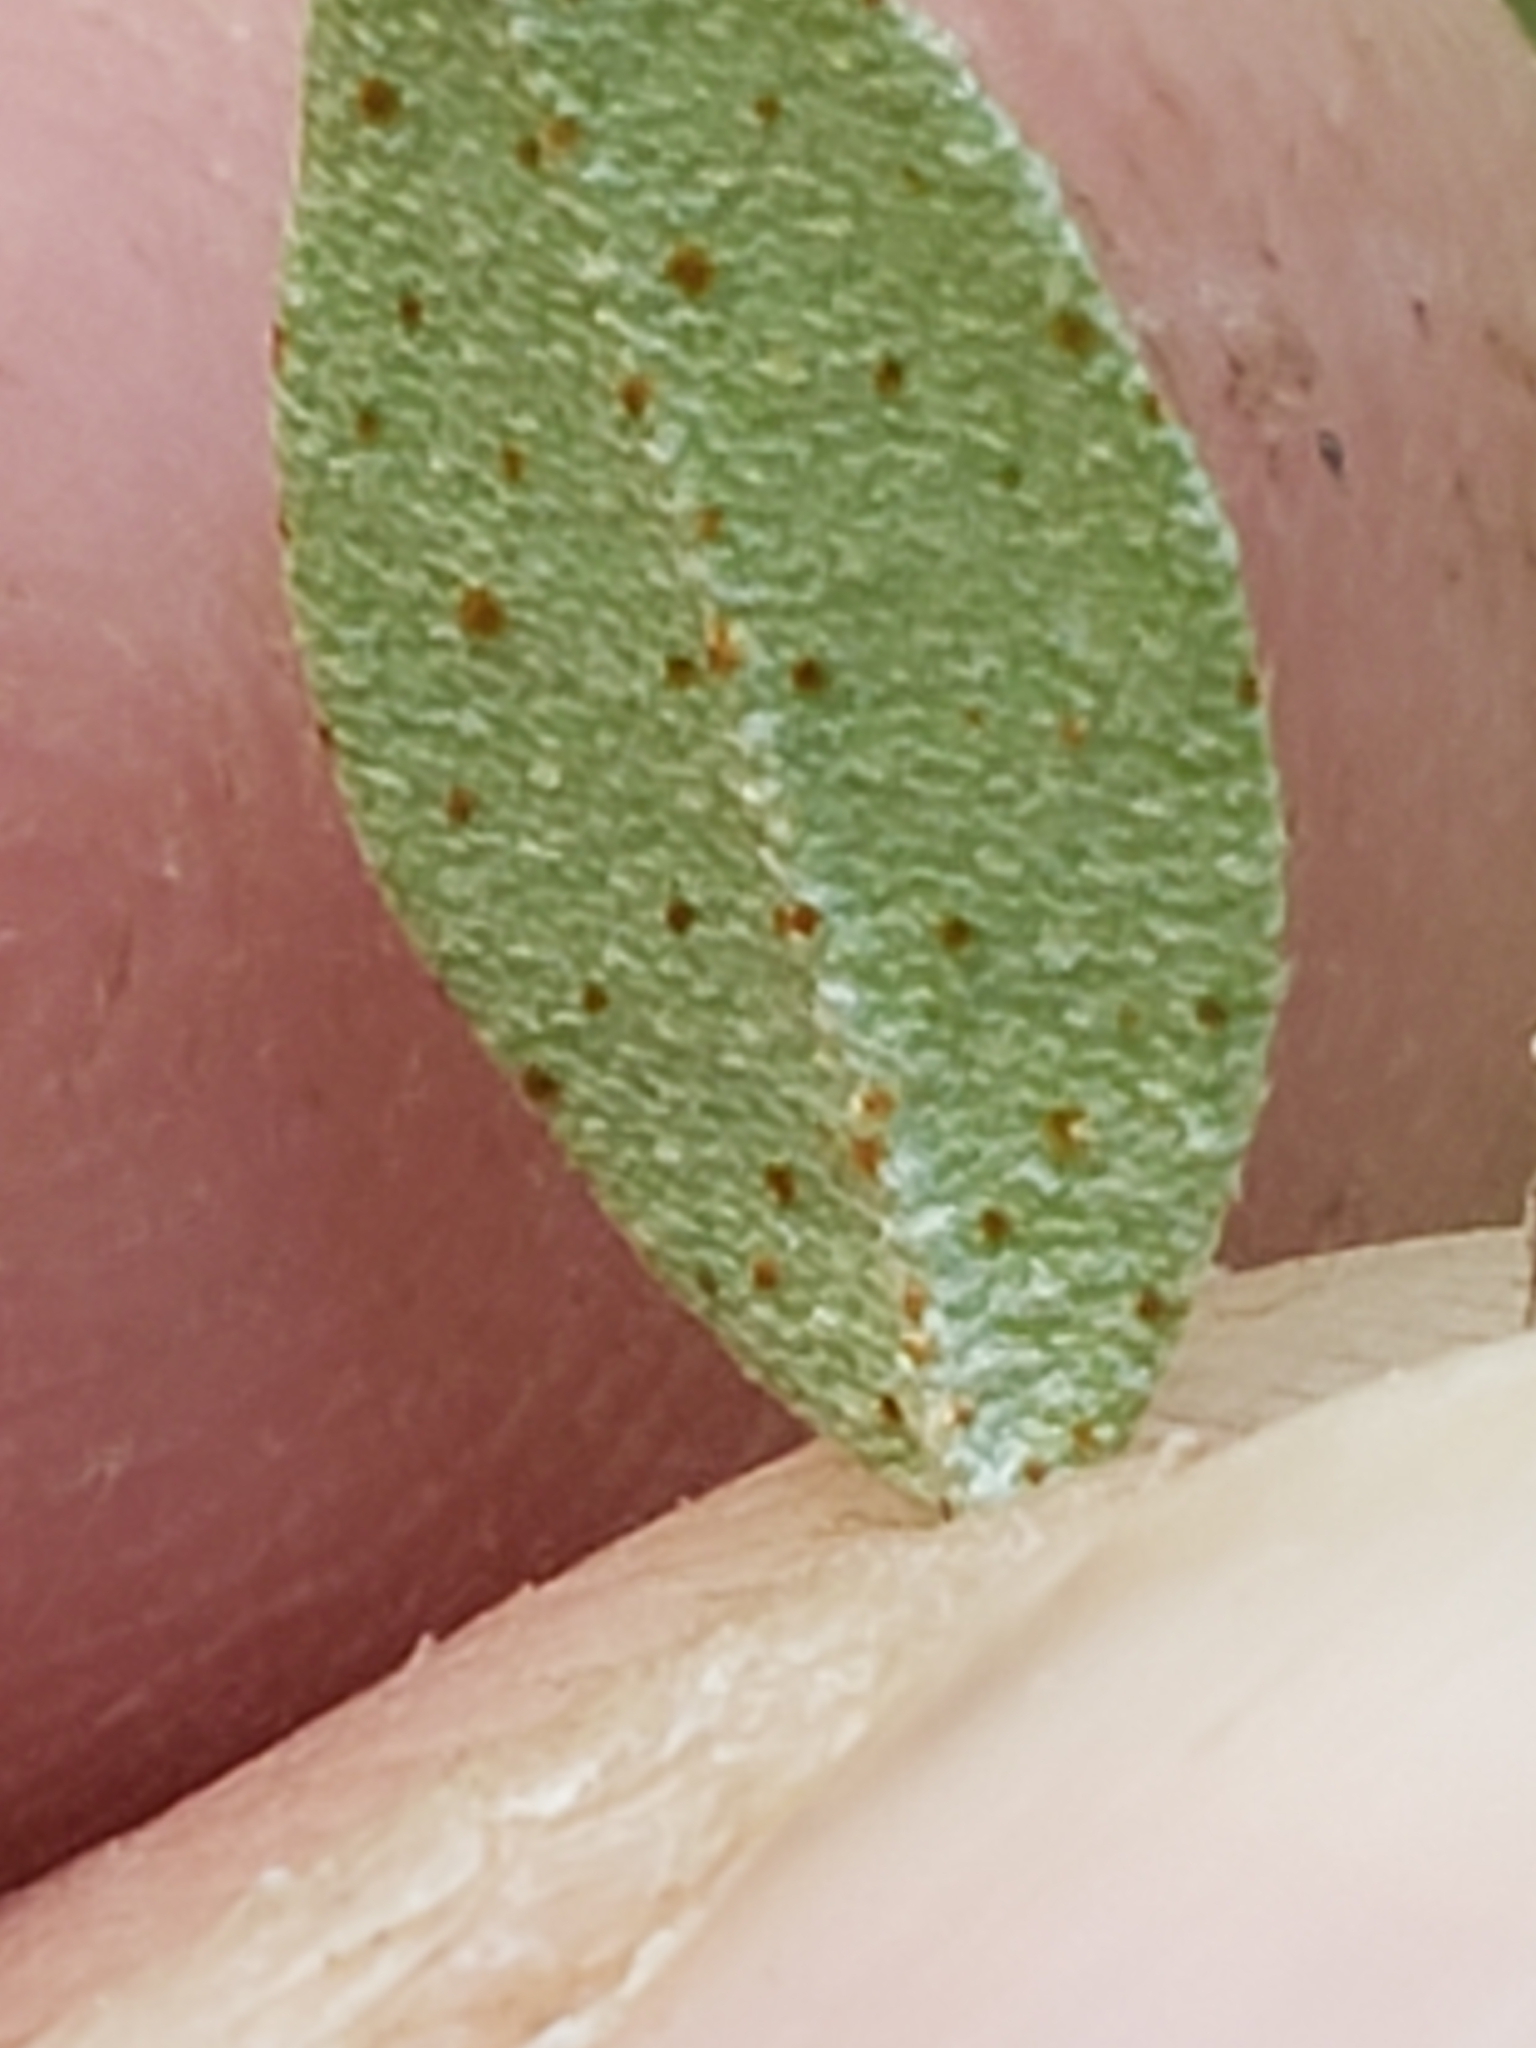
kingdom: Plantae
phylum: Tracheophyta
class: Magnoliopsida
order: Rosales
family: Elaeagnaceae
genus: Elaeagnus
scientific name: Elaeagnus umbellata
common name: Autumn olive
